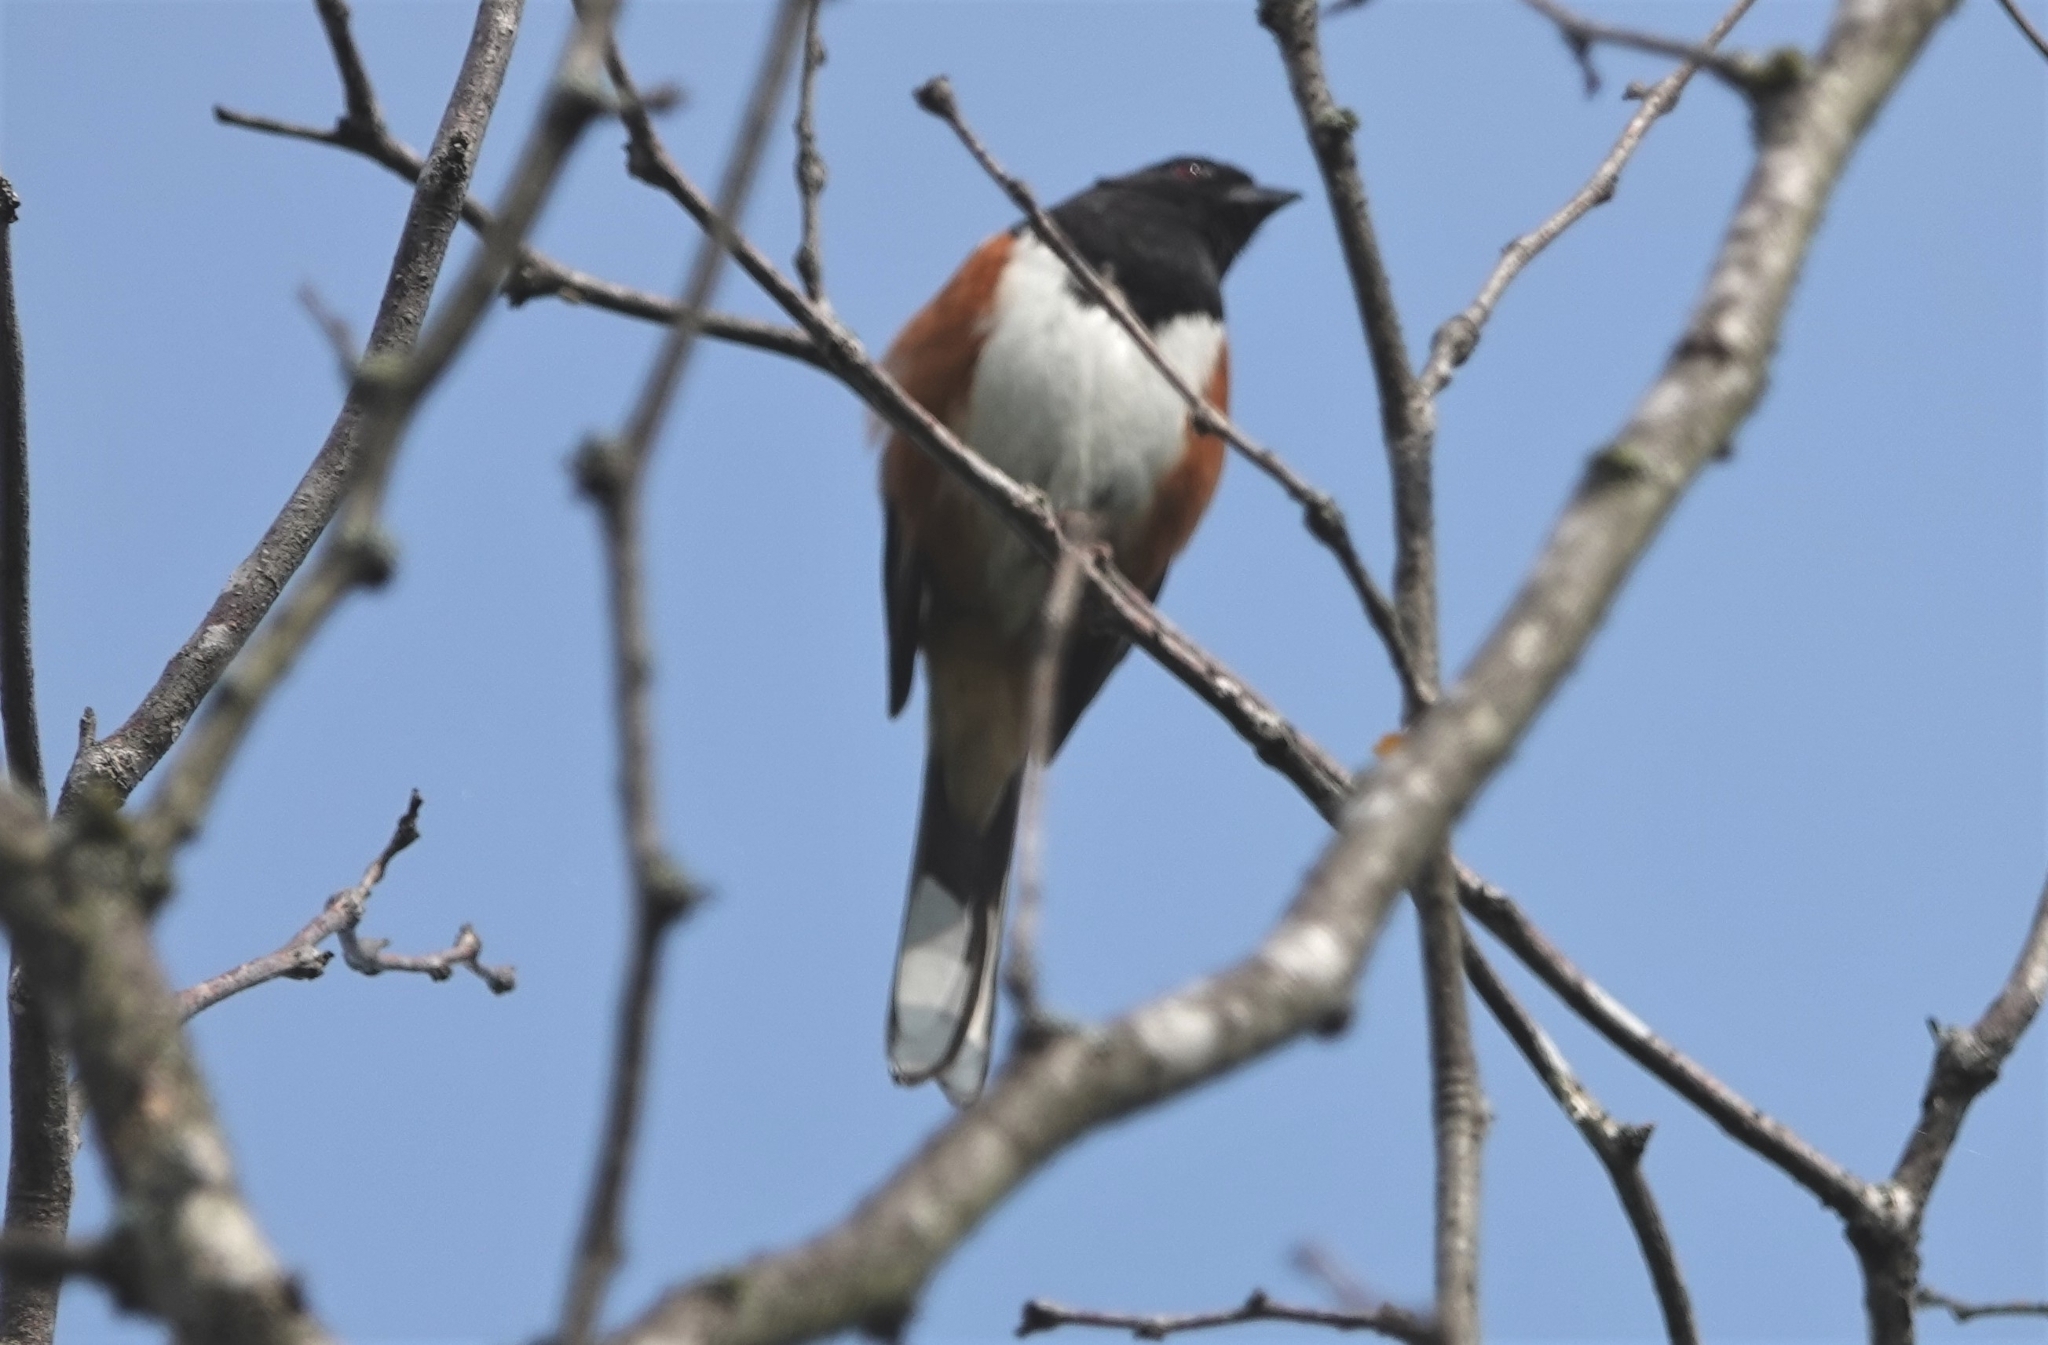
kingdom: Animalia
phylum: Chordata
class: Aves
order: Passeriformes
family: Passerellidae
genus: Pipilo
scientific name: Pipilo erythrophthalmus
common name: Eastern towhee
